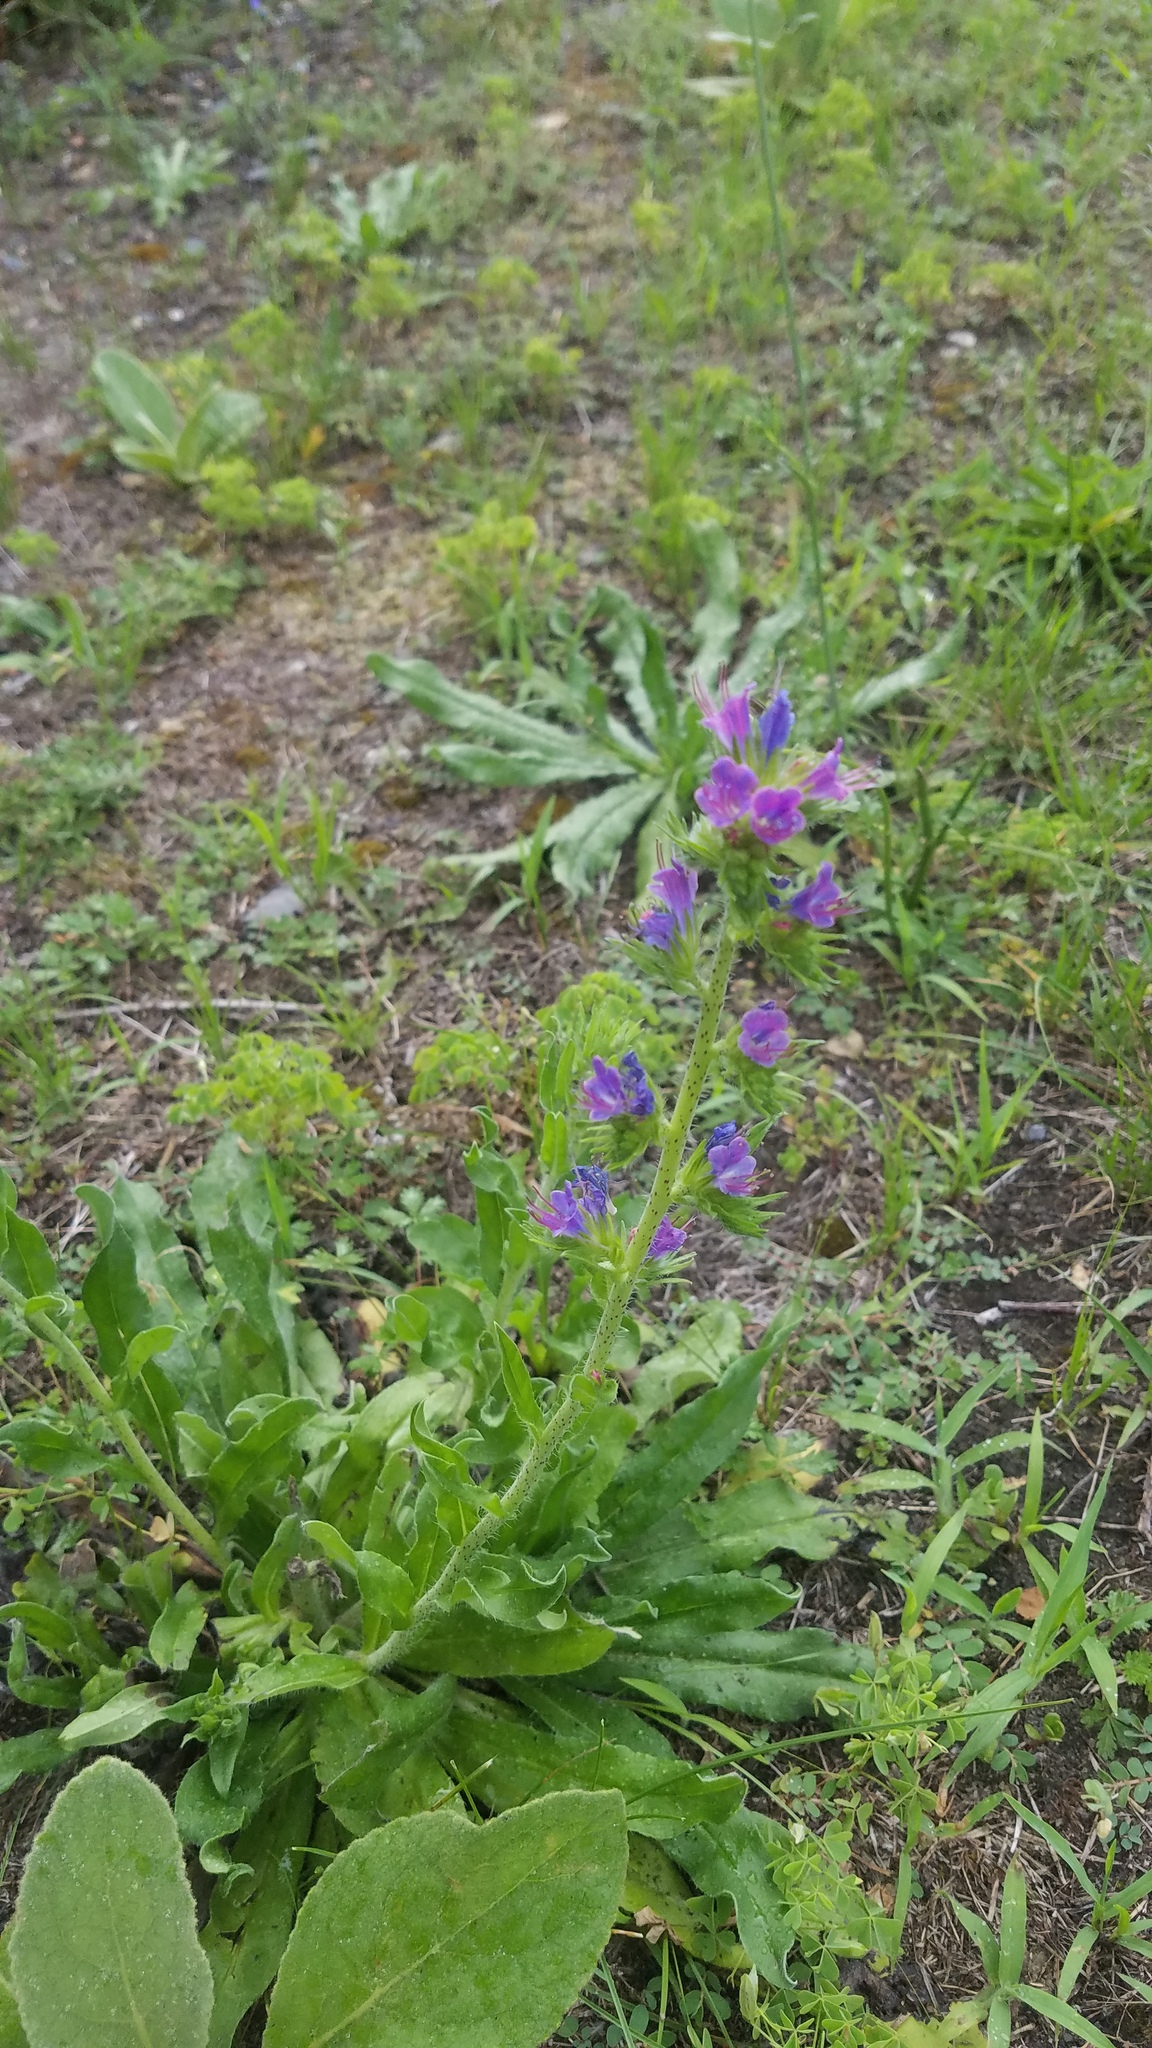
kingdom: Plantae
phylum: Tracheophyta
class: Magnoliopsida
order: Boraginales
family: Boraginaceae
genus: Echium
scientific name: Echium vulgare
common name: Common viper's bugloss
